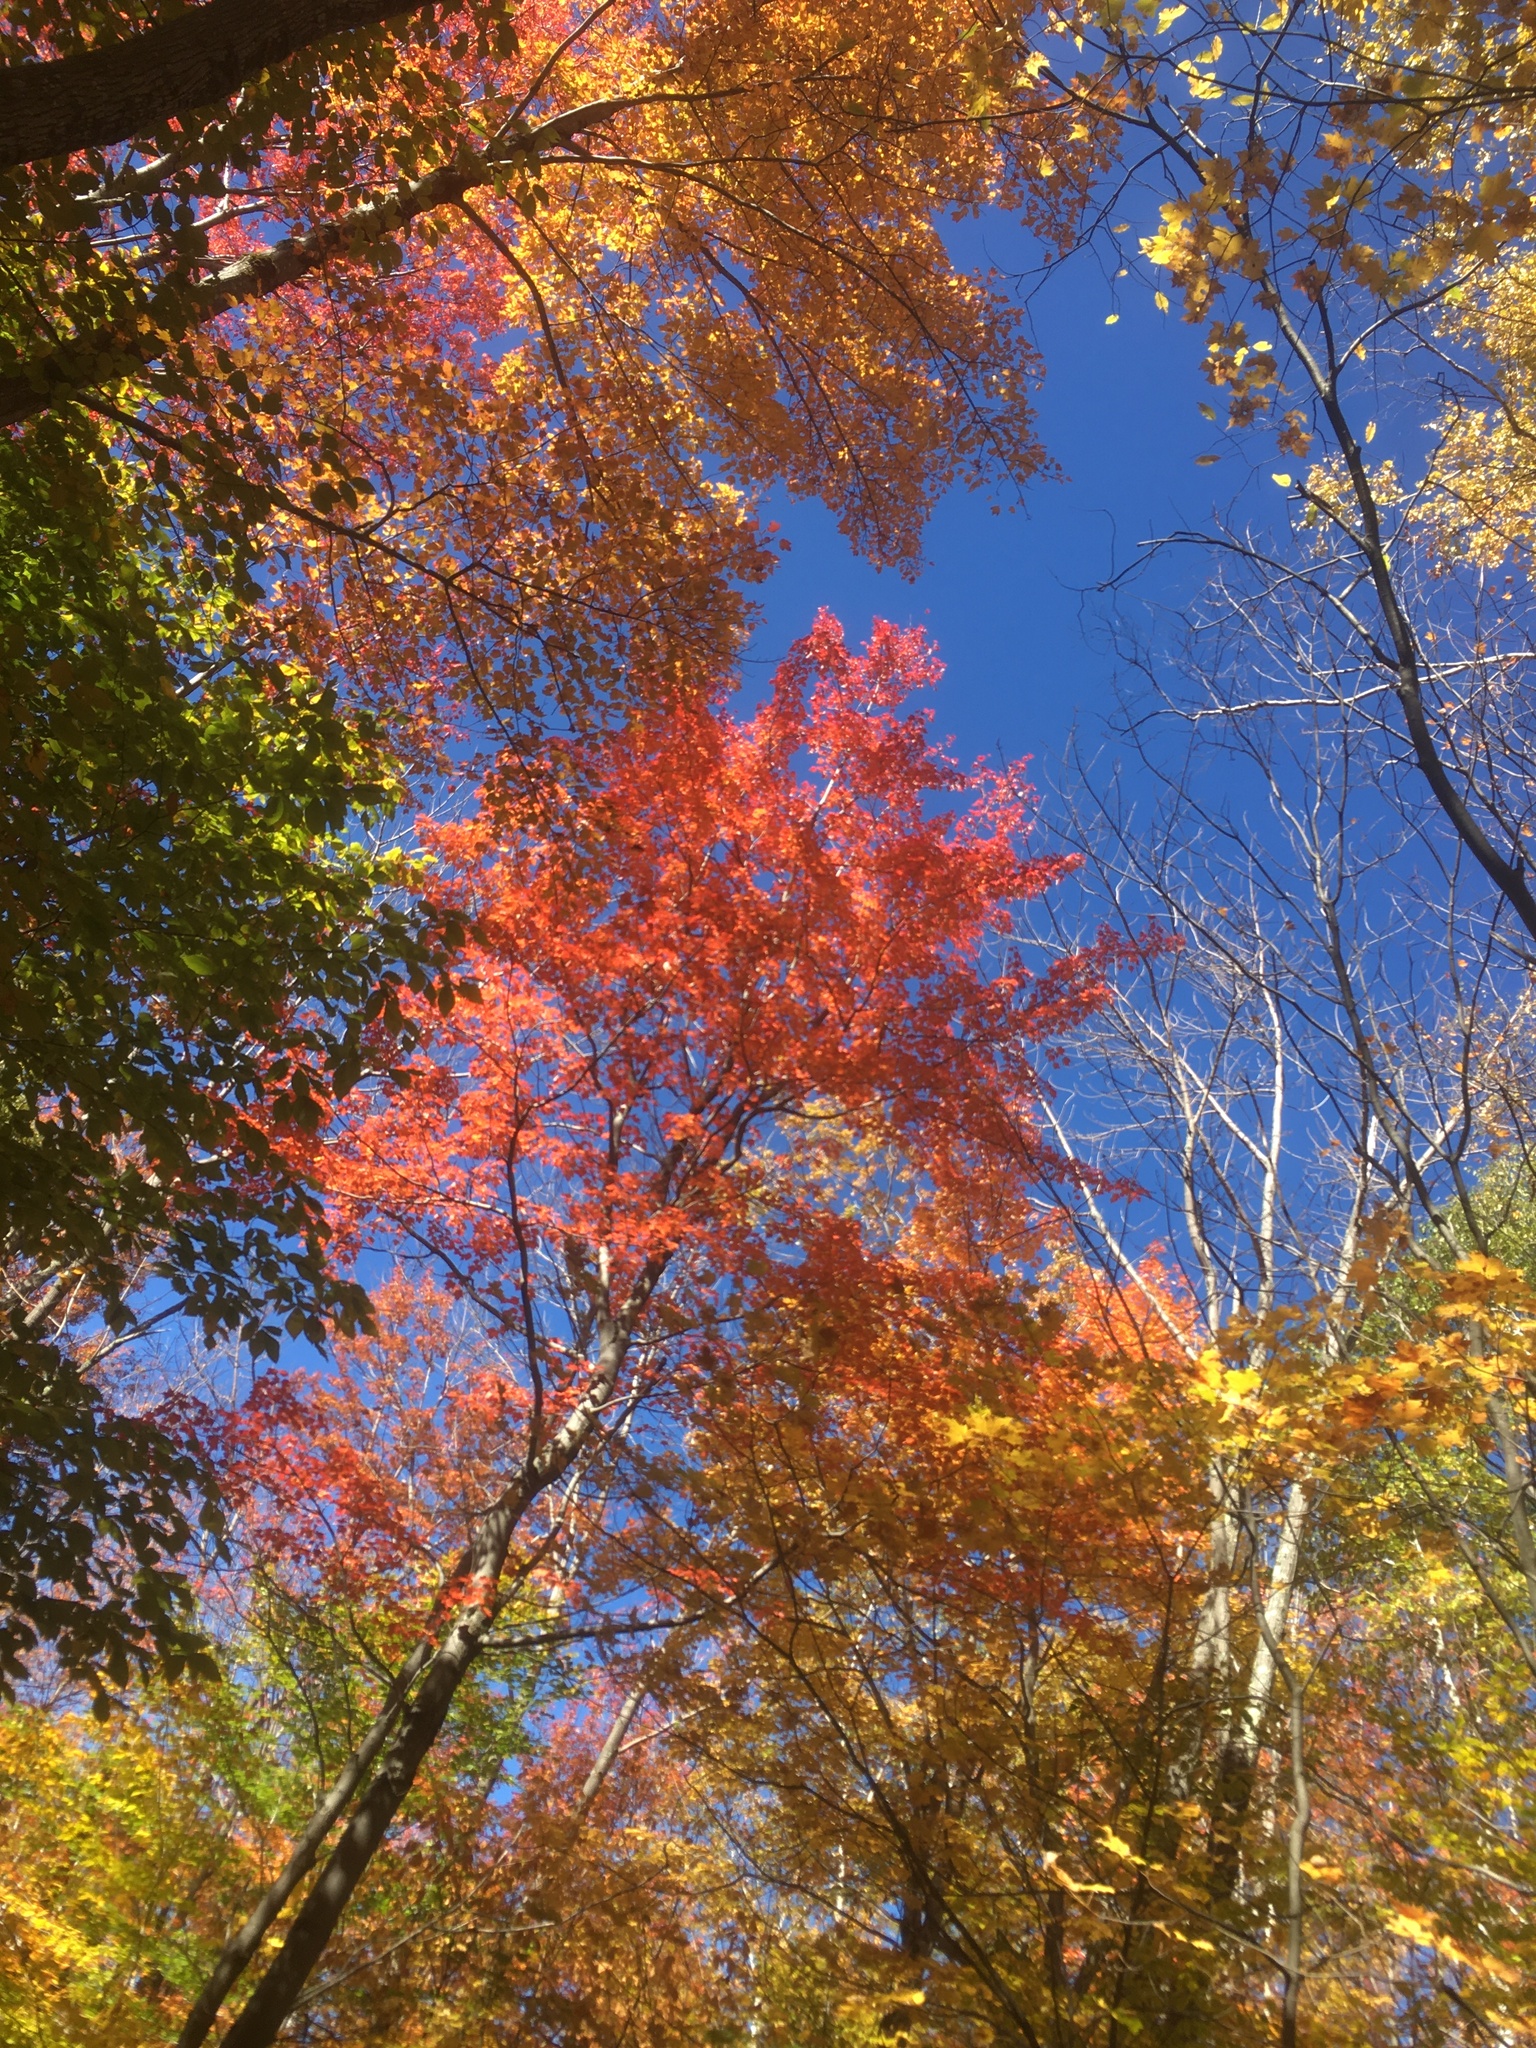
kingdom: Plantae
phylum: Tracheophyta
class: Magnoliopsida
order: Sapindales
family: Sapindaceae
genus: Acer
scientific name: Acer rubrum
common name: Red maple
